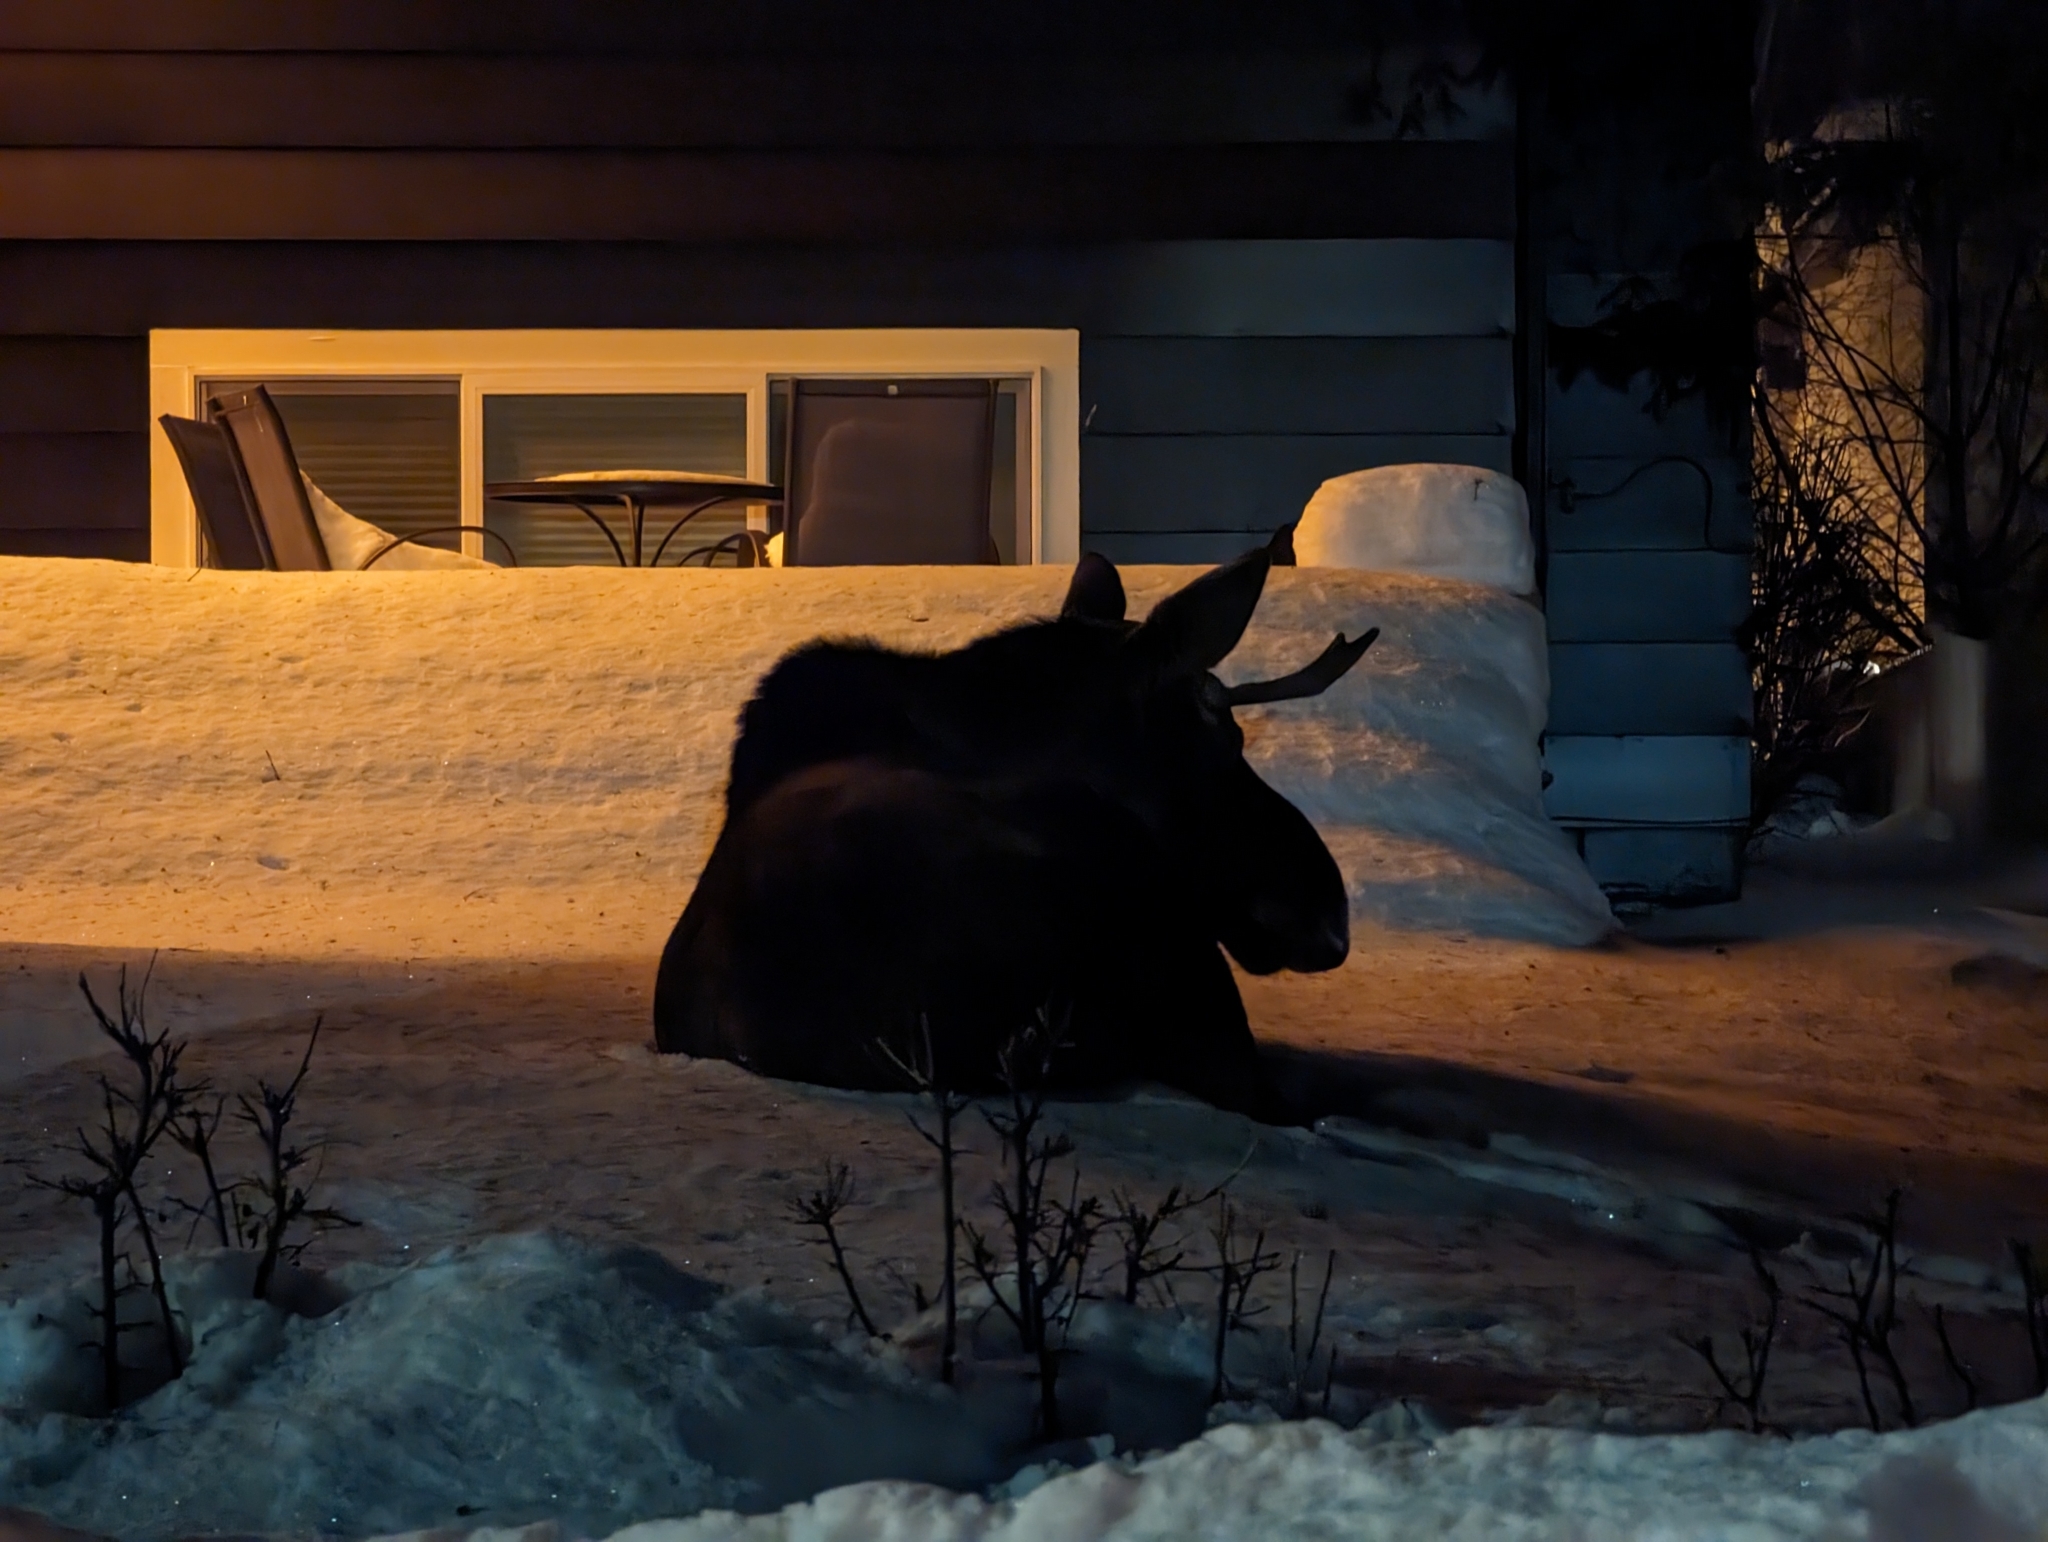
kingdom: Animalia
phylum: Chordata
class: Mammalia
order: Artiodactyla
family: Cervidae
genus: Alces
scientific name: Alces alces
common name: Moose
